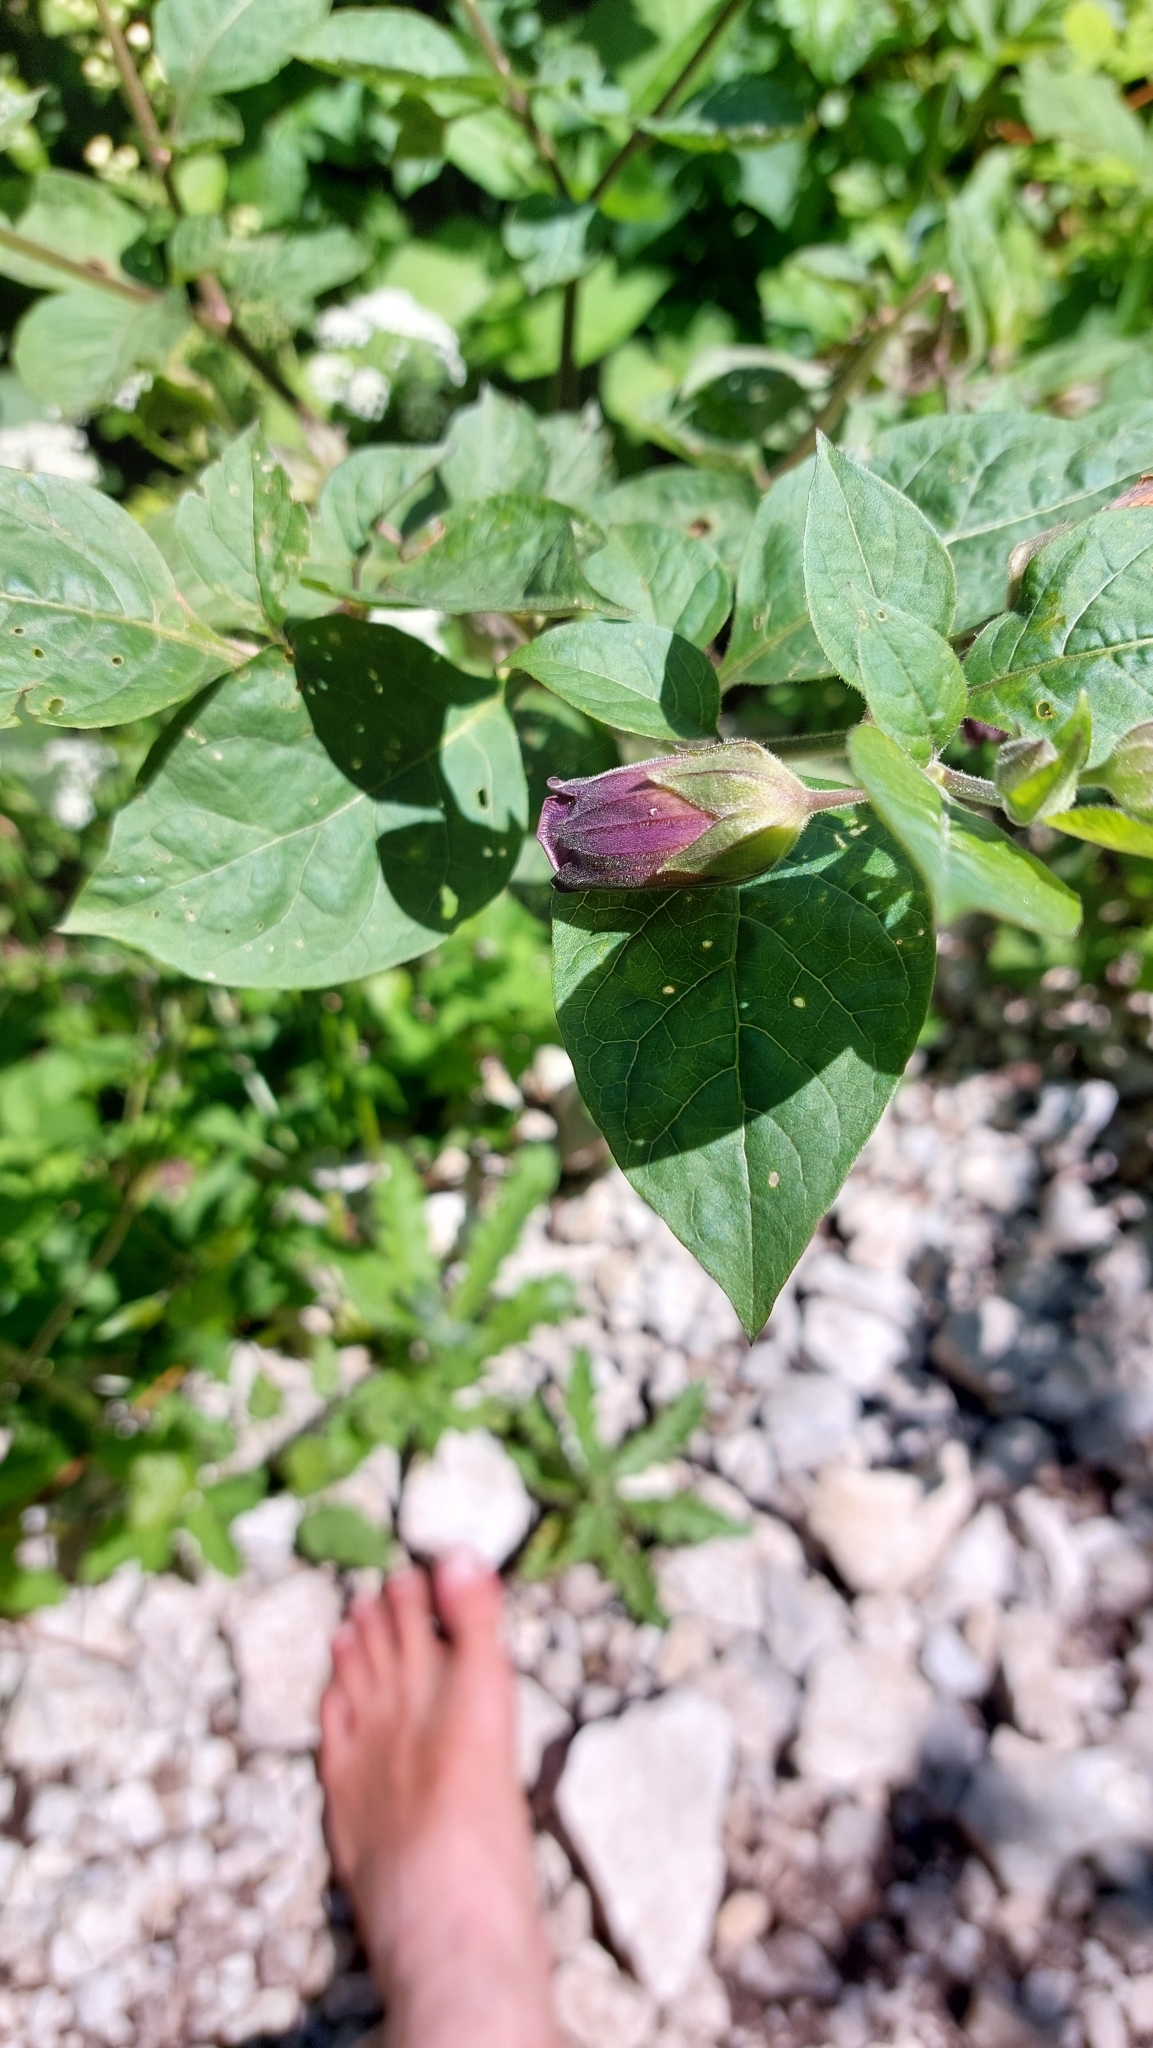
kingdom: Plantae
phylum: Tracheophyta
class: Magnoliopsida
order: Solanales
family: Solanaceae
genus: Atropa
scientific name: Atropa belladonna
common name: Deadly nightshade
